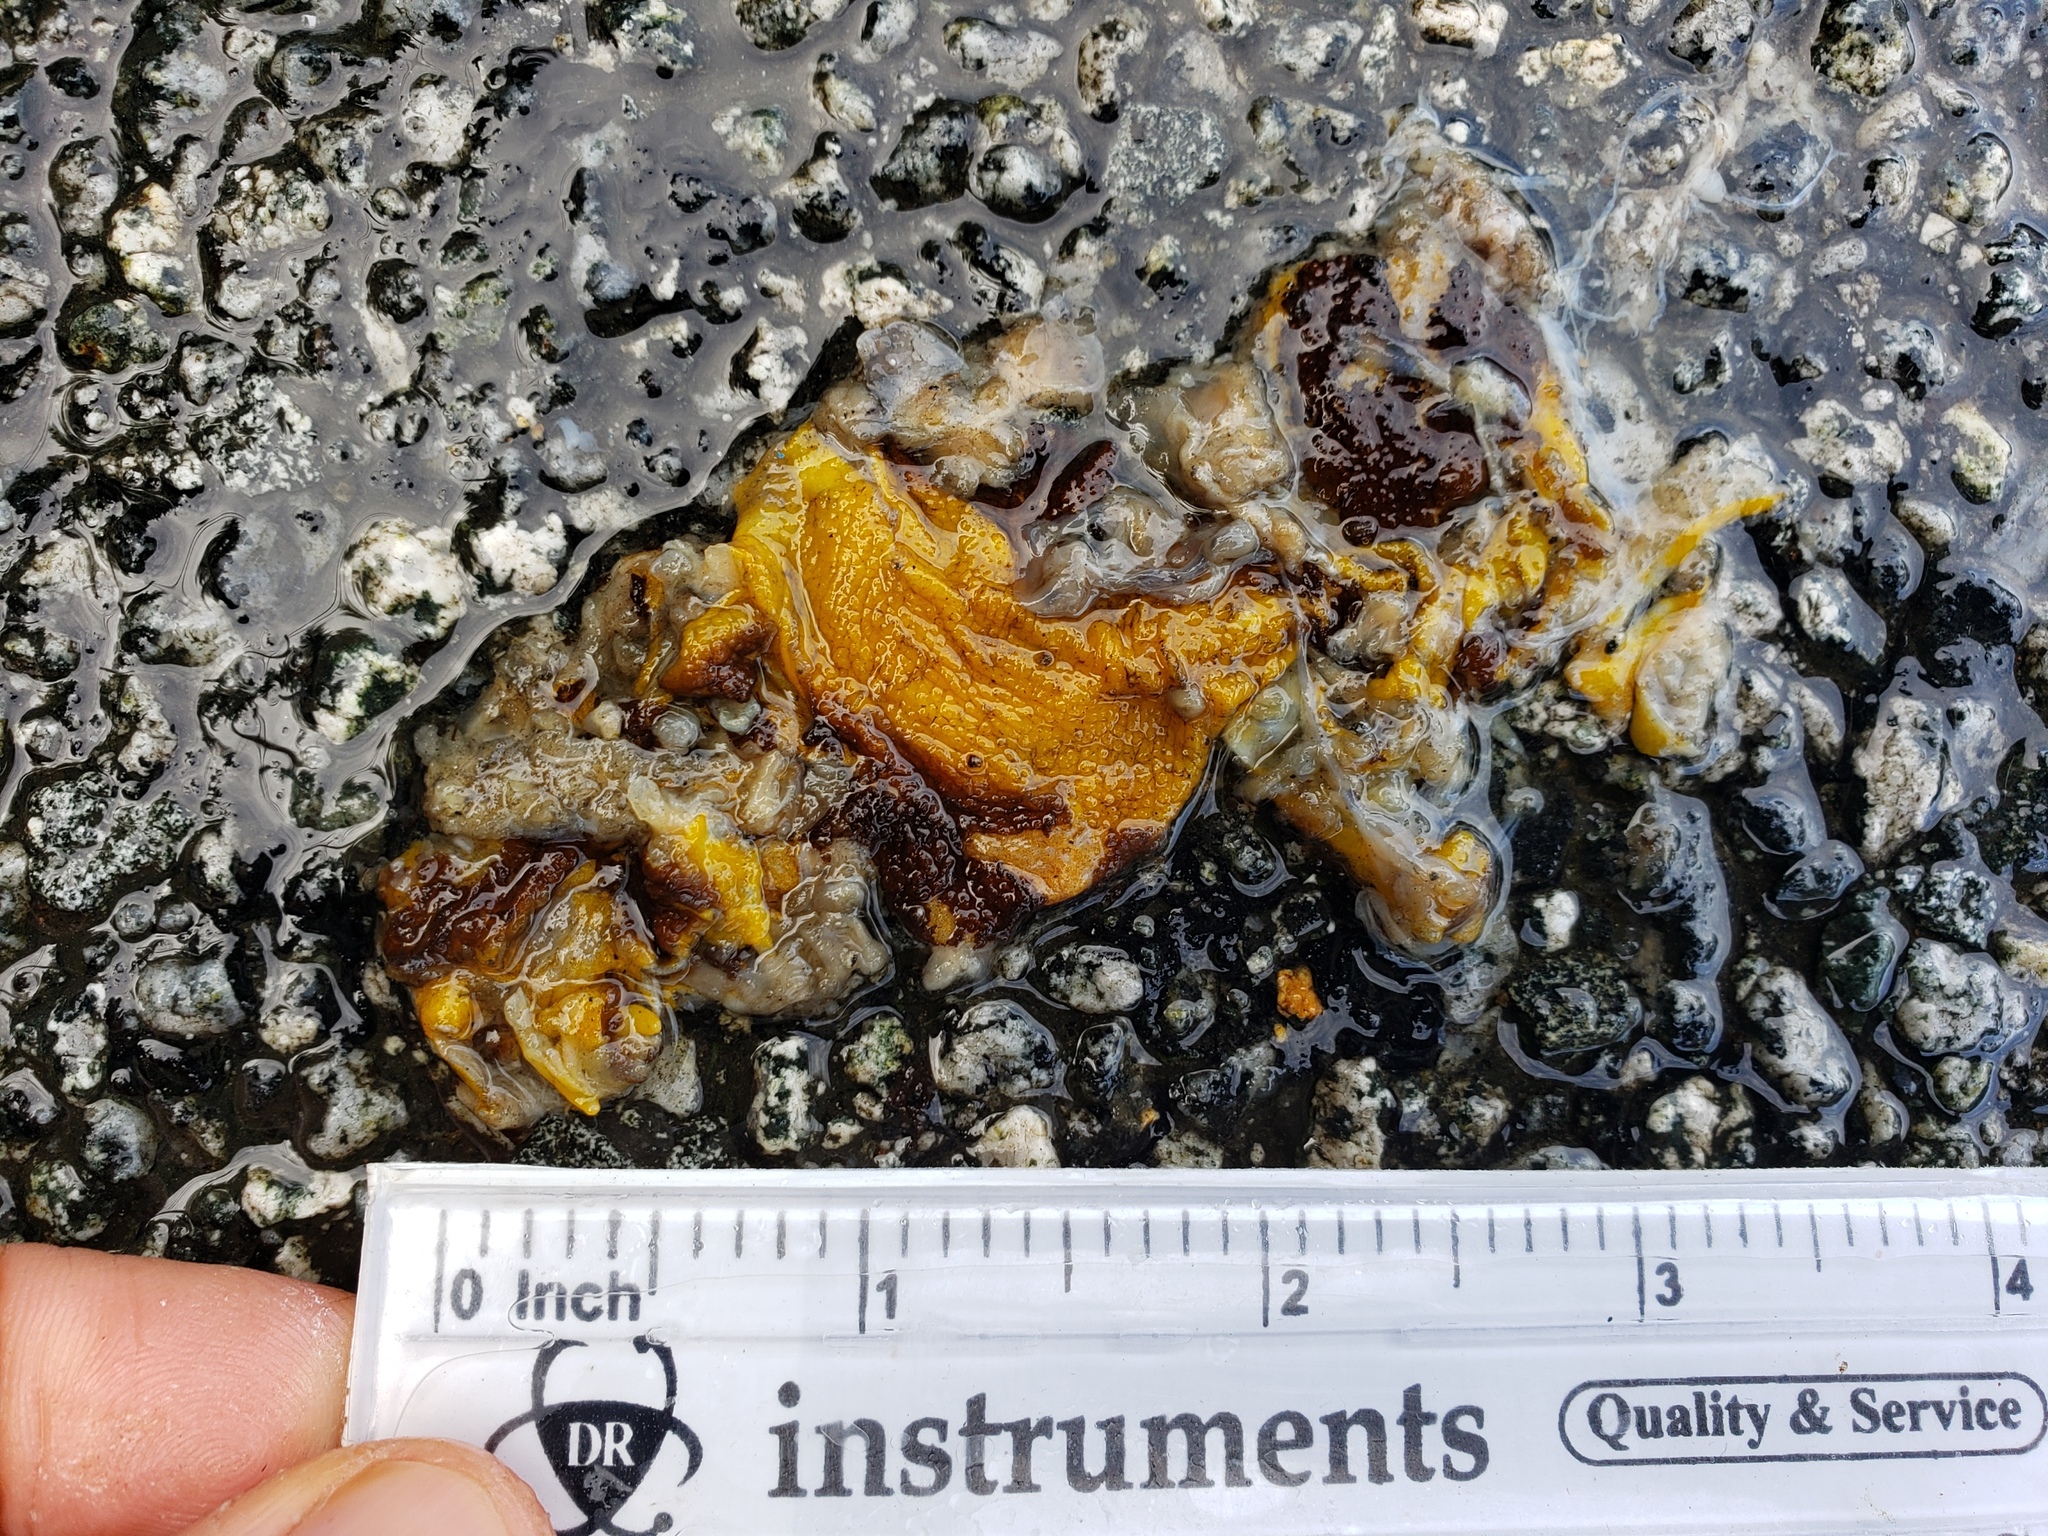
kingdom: Animalia
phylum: Chordata
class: Amphibia
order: Caudata
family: Salamandridae
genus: Taricha
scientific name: Taricha
